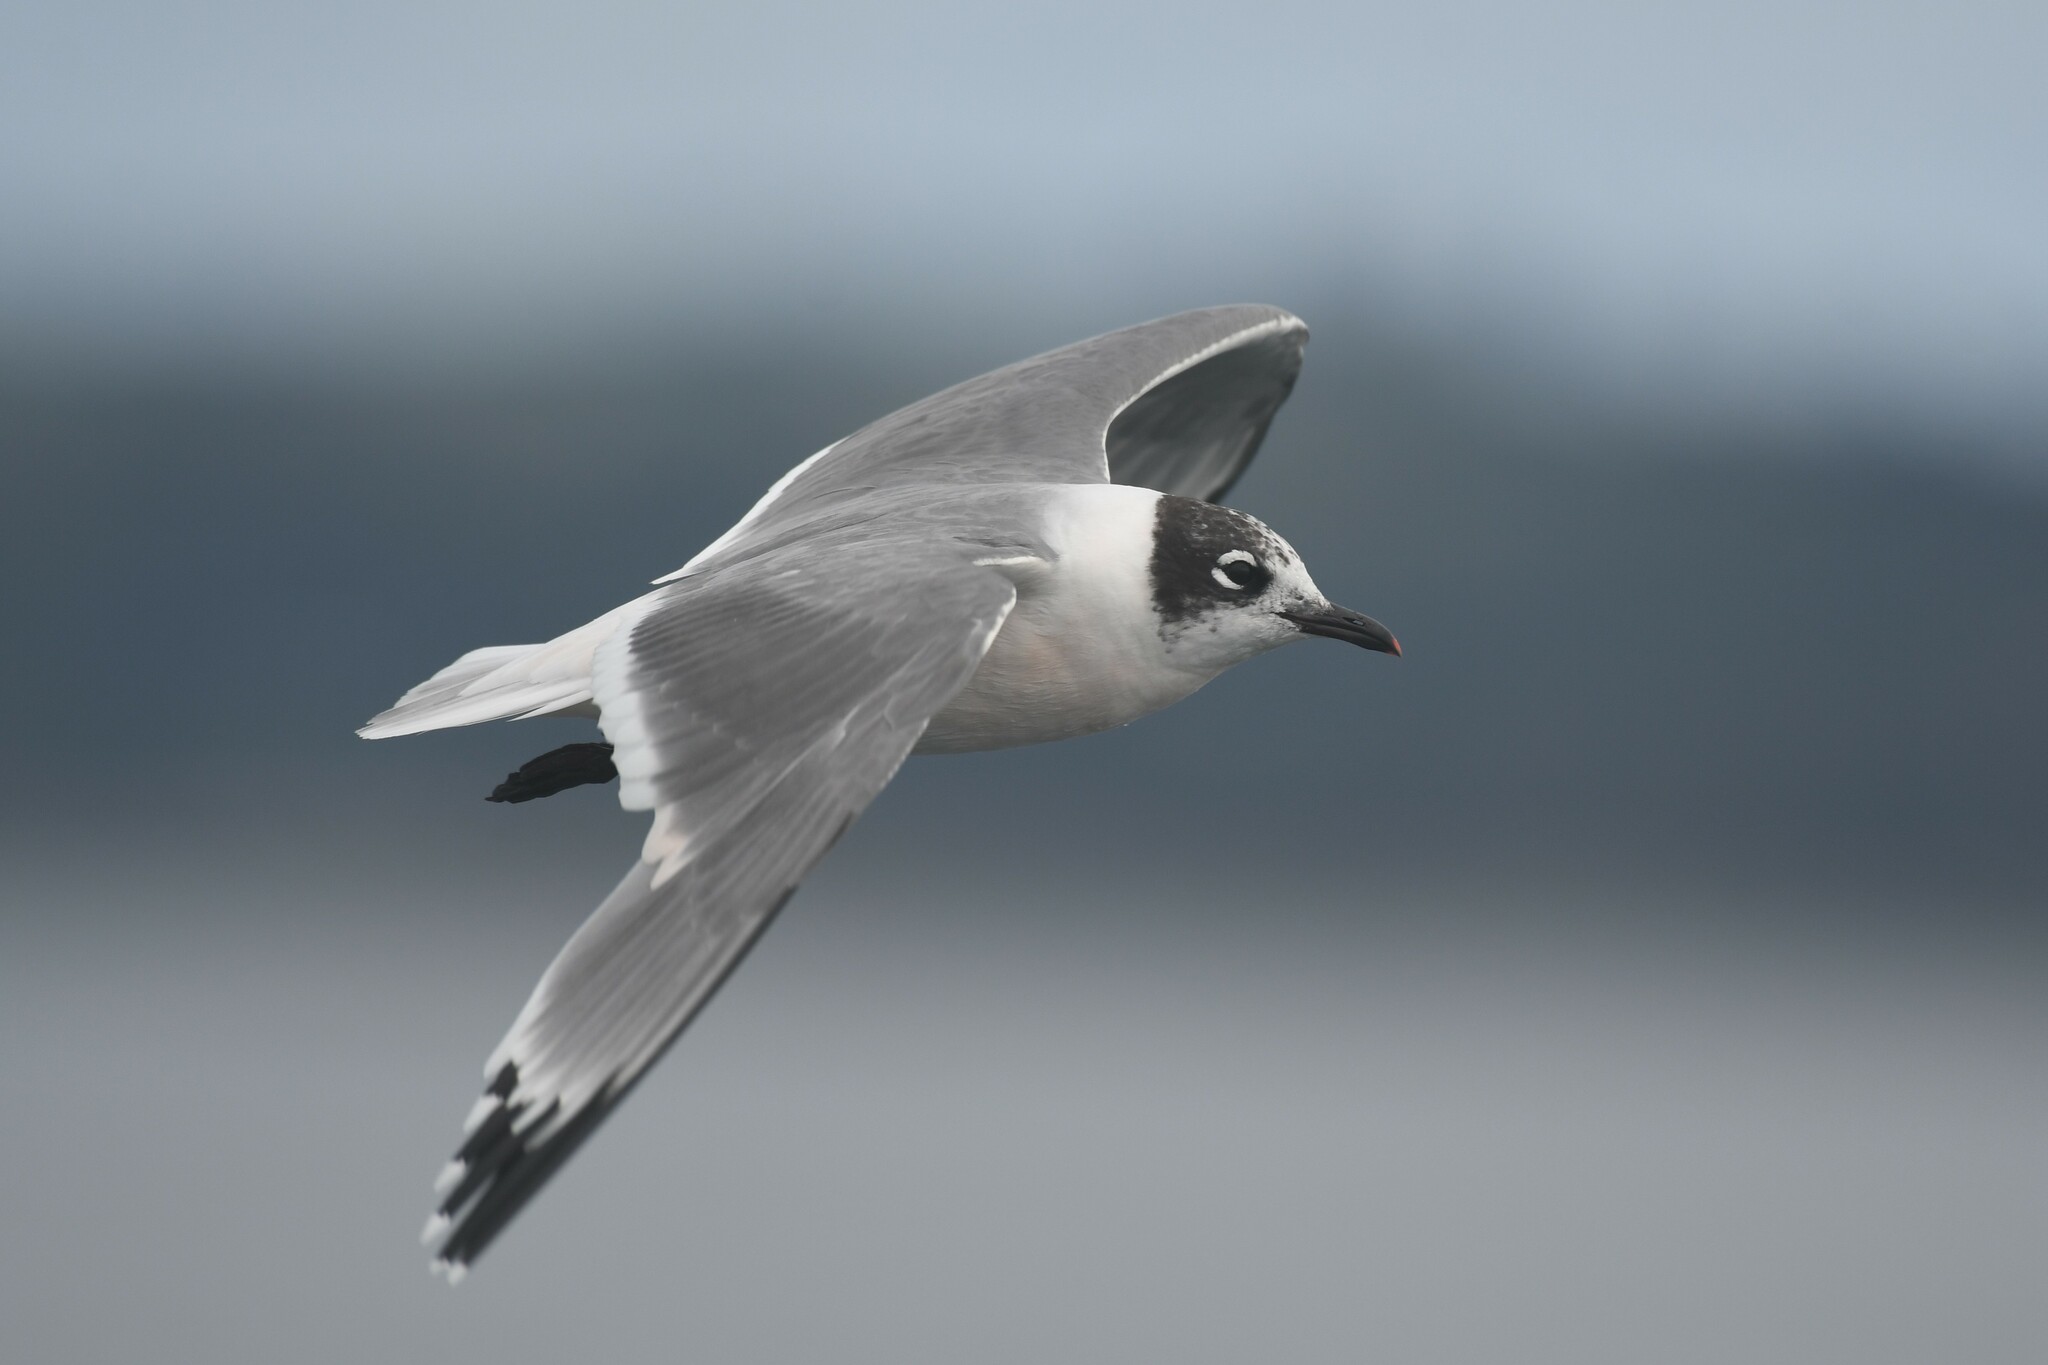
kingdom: Animalia
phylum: Chordata
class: Aves
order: Charadriiformes
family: Laridae
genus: Leucophaeus
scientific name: Leucophaeus pipixcan
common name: Franklin's gull
